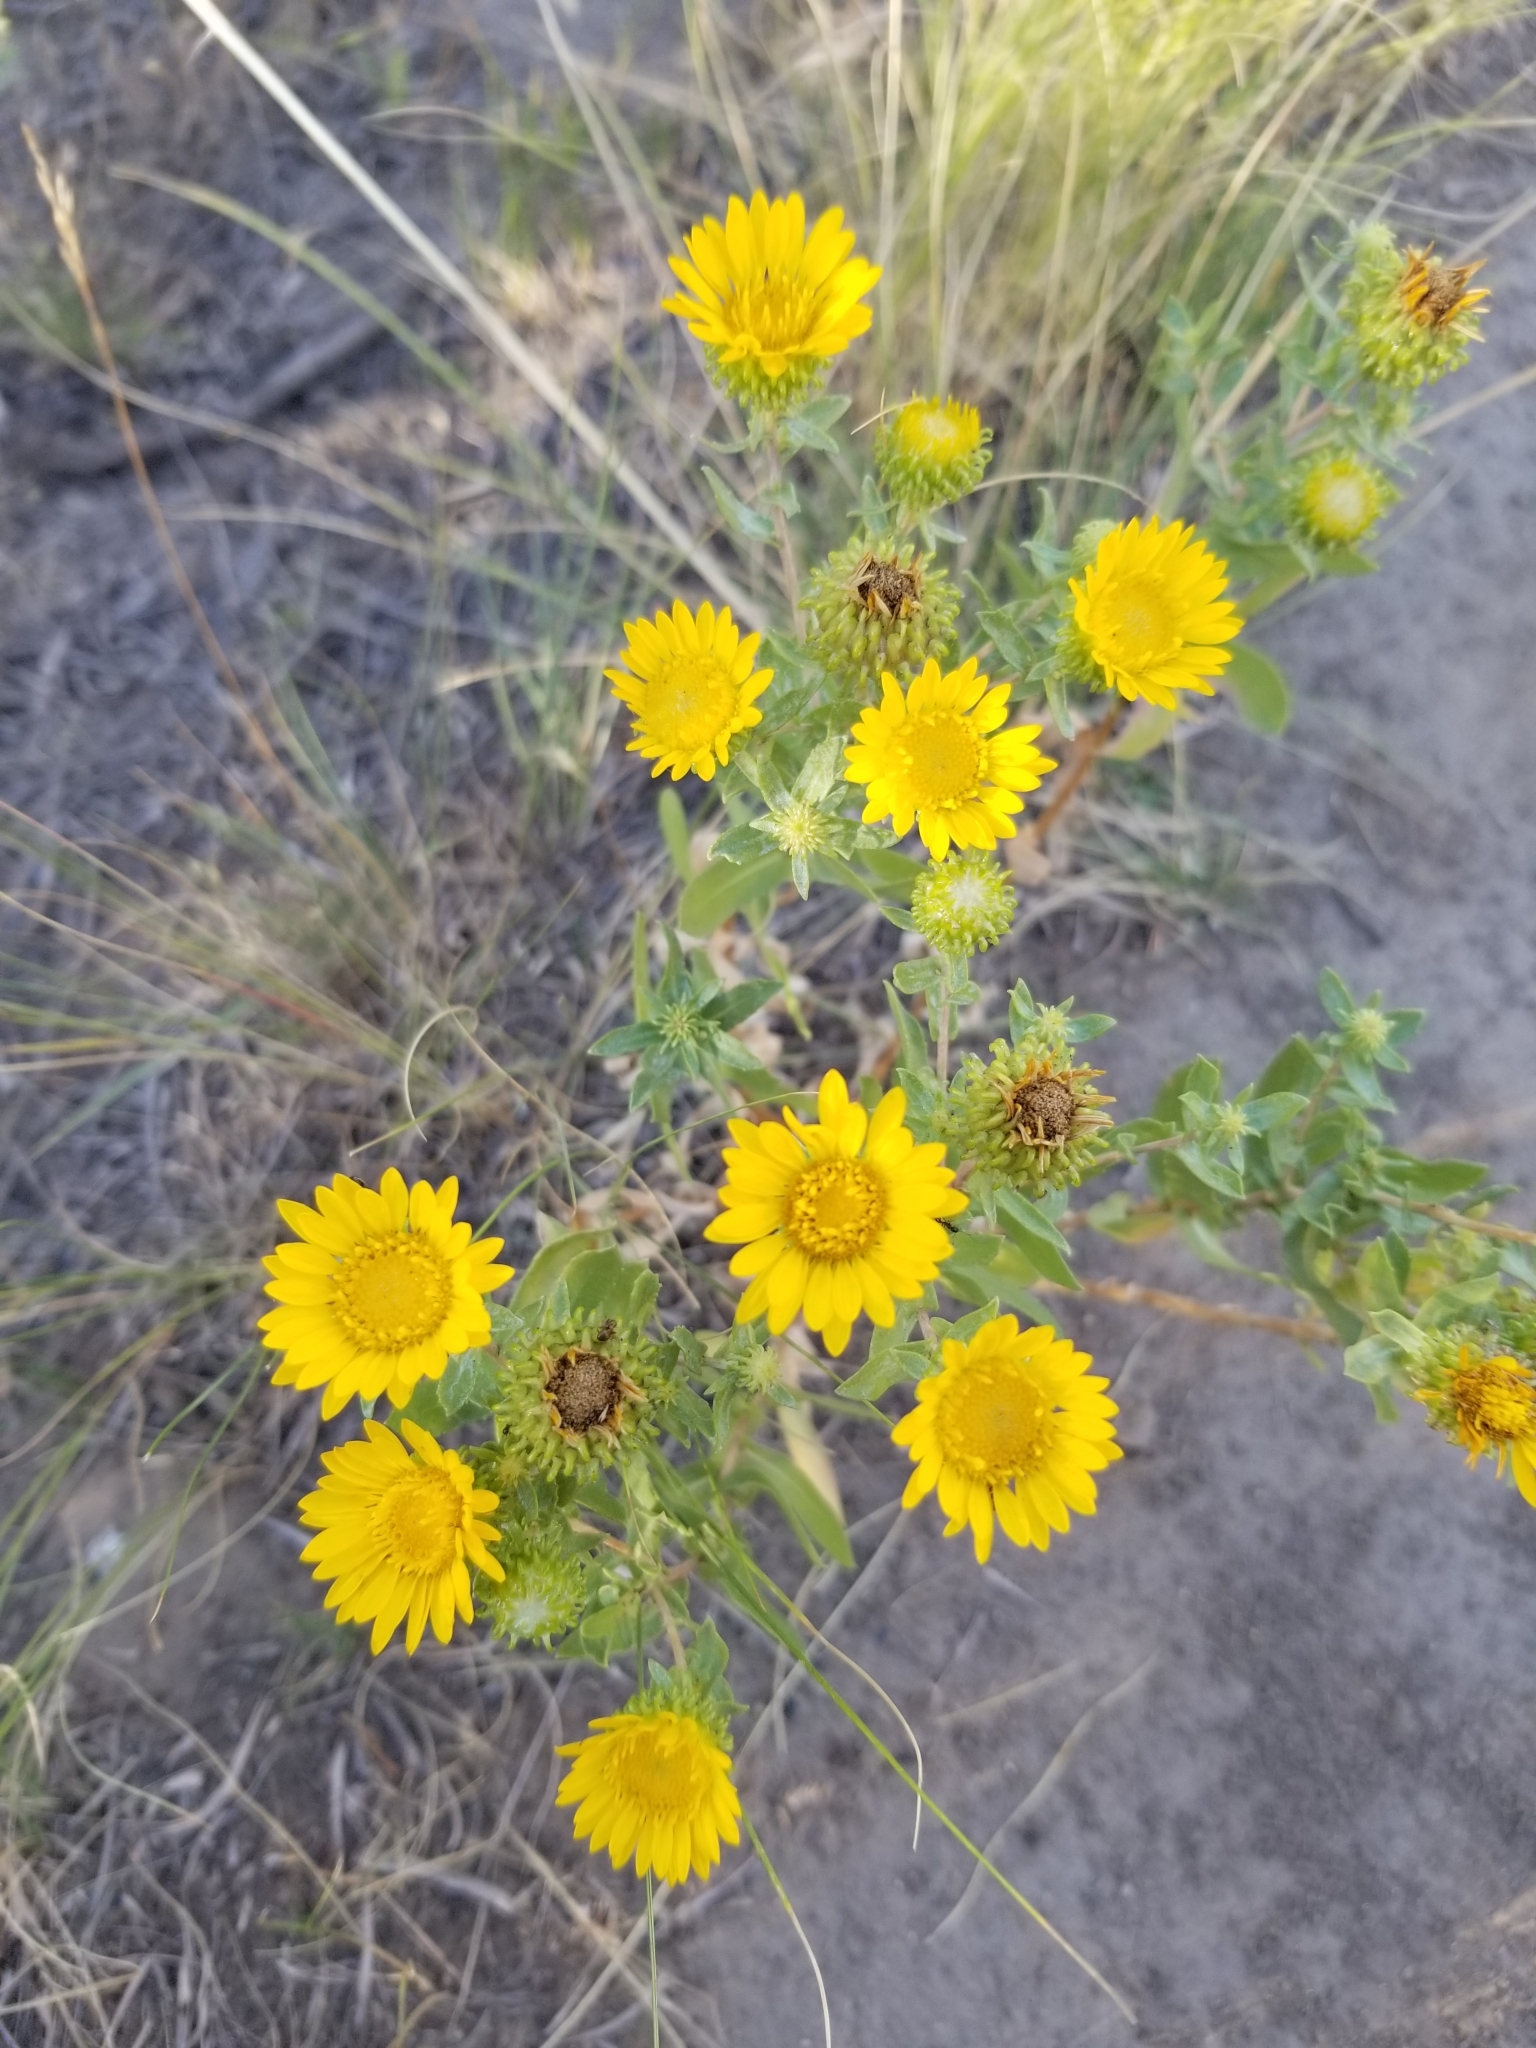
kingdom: Plantae
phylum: Tracheophyta
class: Magnoliopsida
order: Asterales
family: Asteraceae
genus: Grindelia
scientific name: Grindelia squarrosa
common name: Curly-cup gumweed
